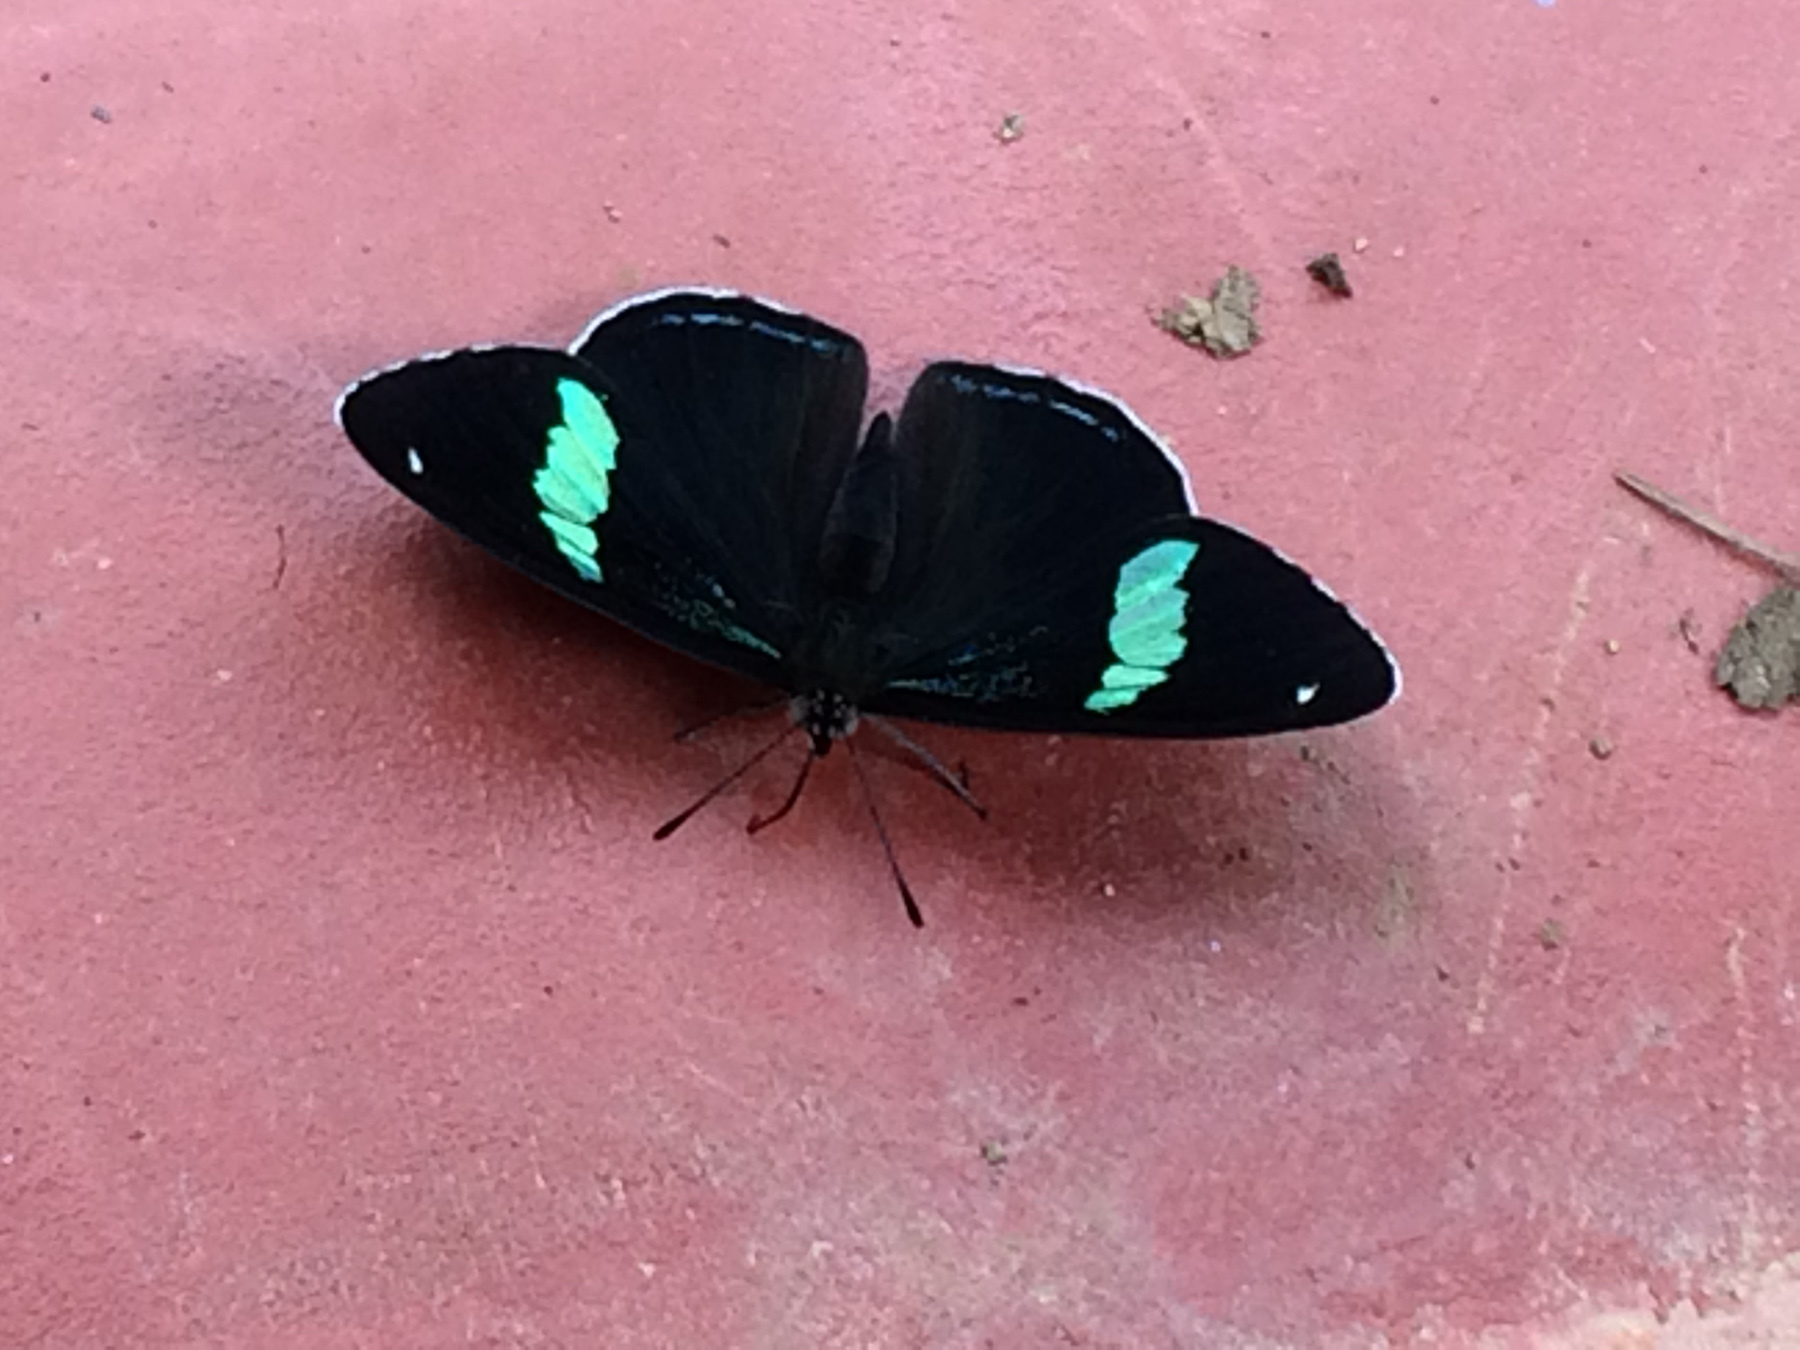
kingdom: Animalia
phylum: Arthropoda
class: Insecta
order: Lepidoptera
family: Nymphalidae
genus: Diaethria
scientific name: Diaethria anna
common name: Anna’s eighty-eight
